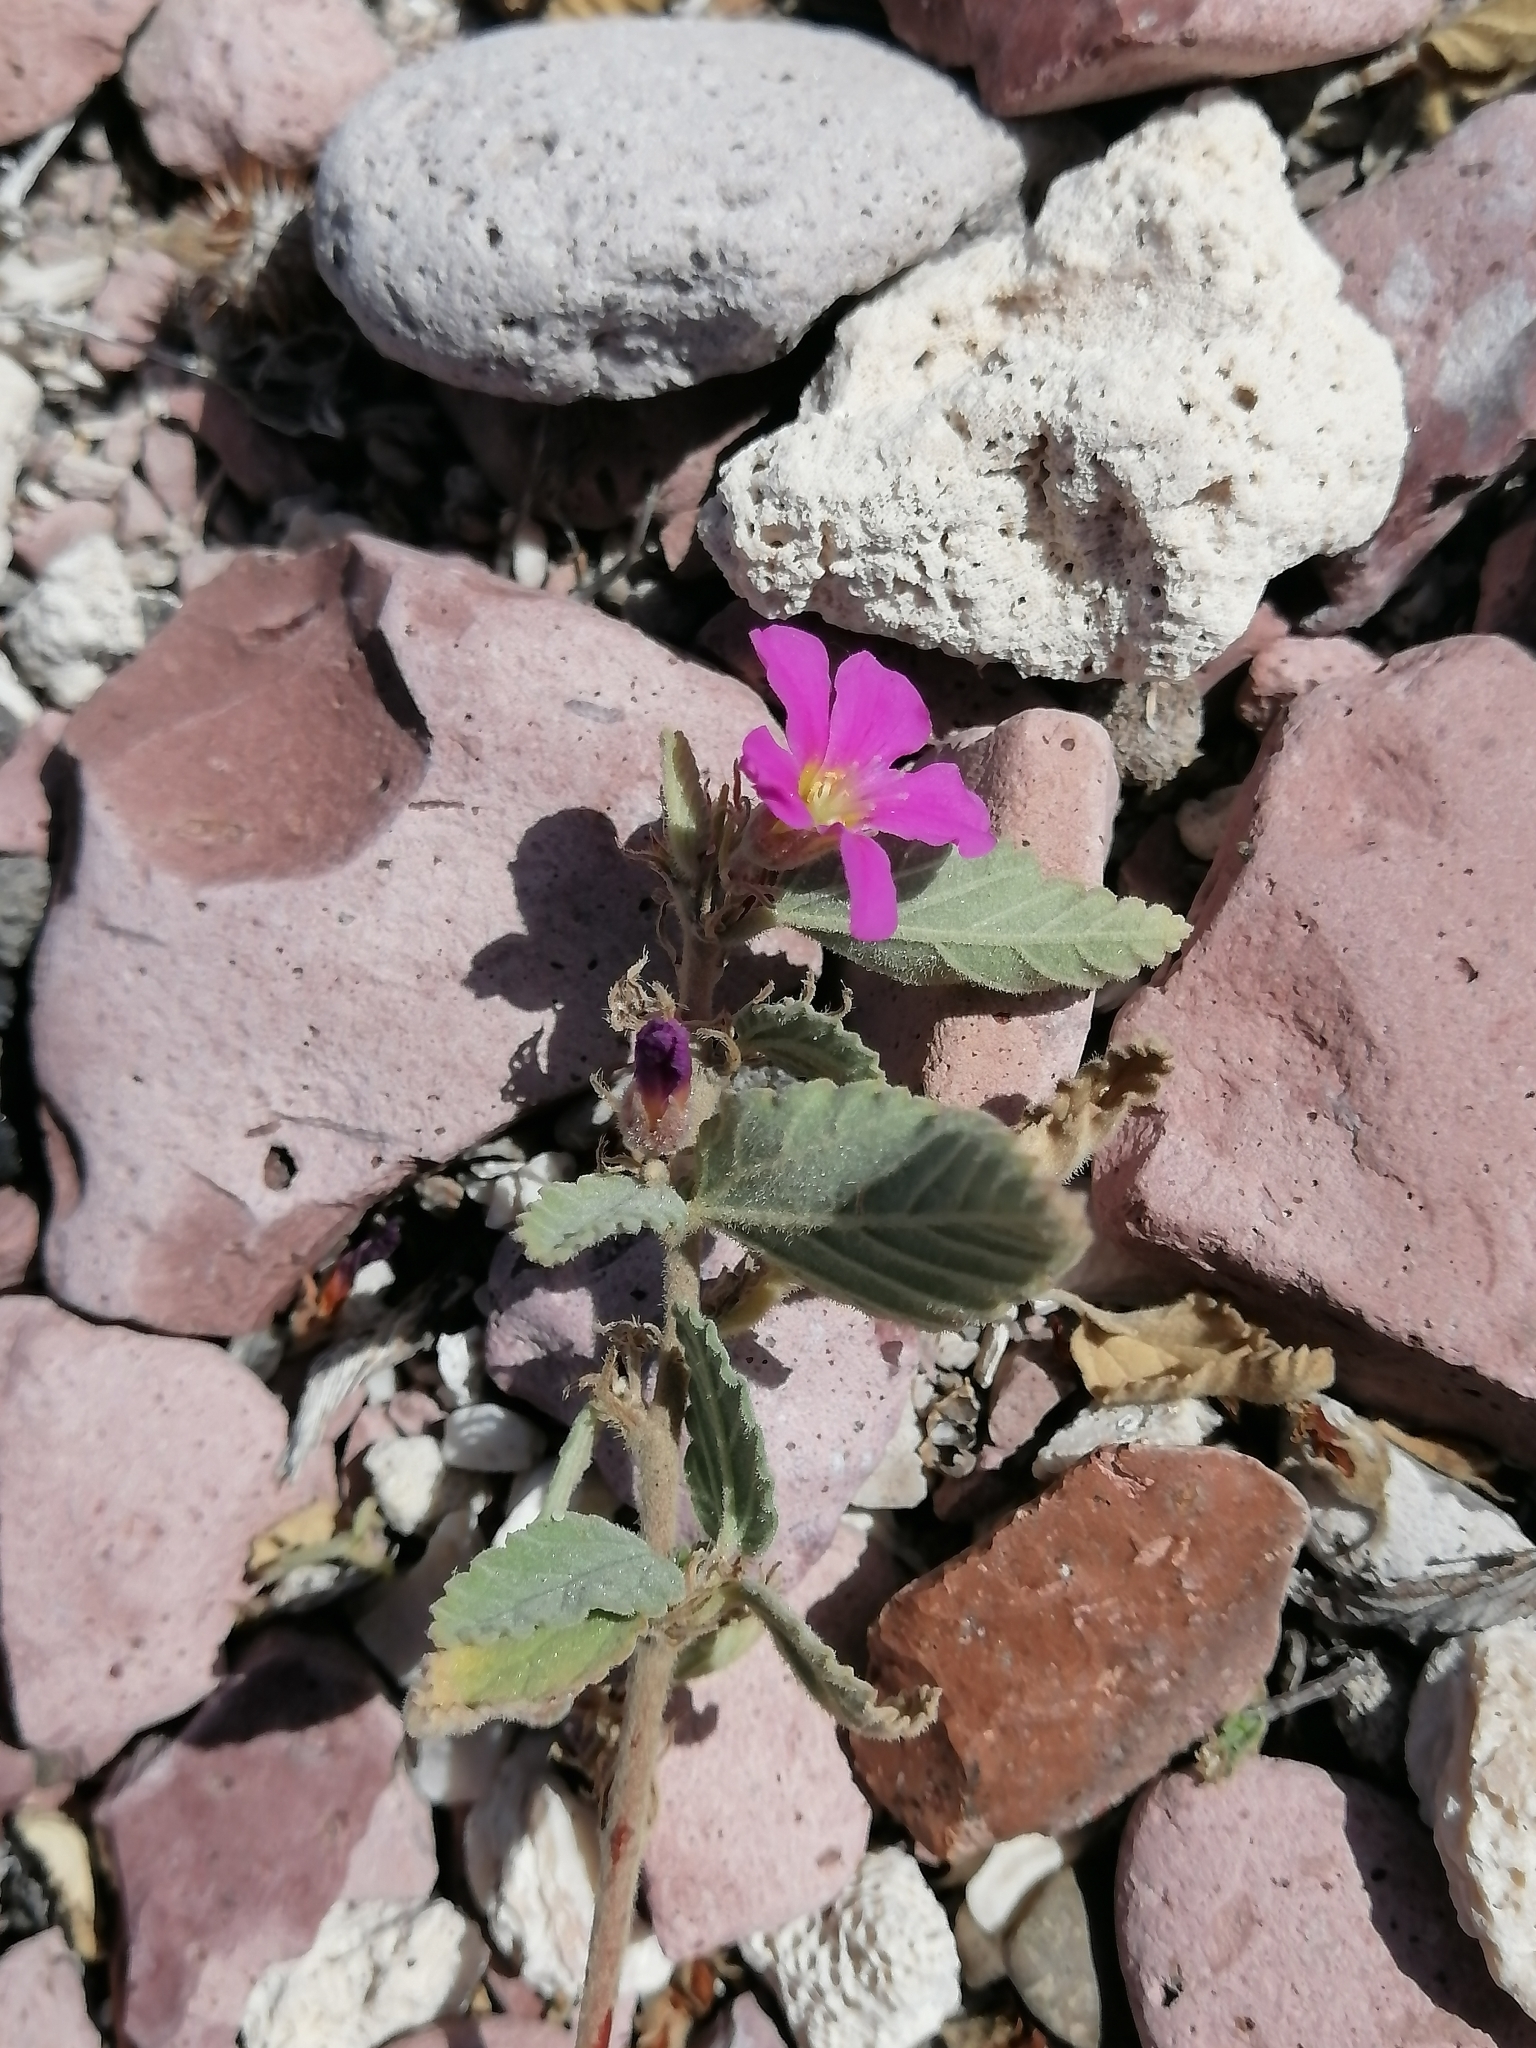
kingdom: Plantae
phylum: Tracheophyta
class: Magnoliopsida
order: Malvales
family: Malvaceae
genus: Melochia
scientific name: Melochia tomentosa
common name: Black torch
